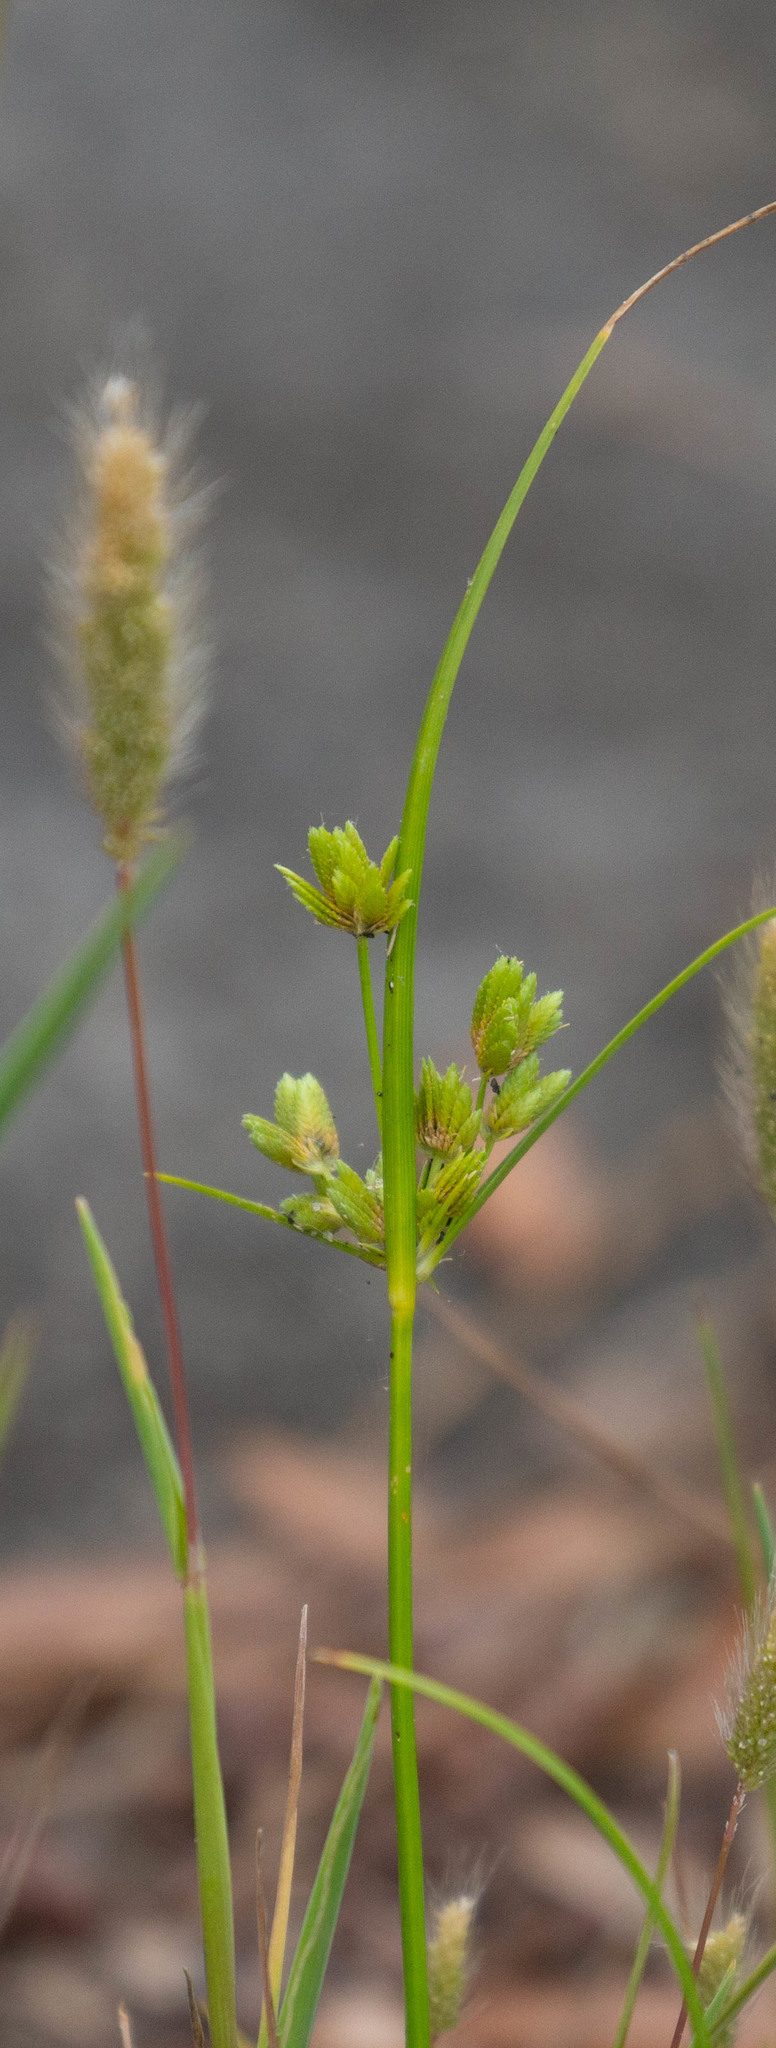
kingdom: Plantae
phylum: Tracheophyta
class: Liliopsida
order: Poales
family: Cyperaceae
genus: Cyperus
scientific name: Cyperus surinamensis
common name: Tropical flat sedge
